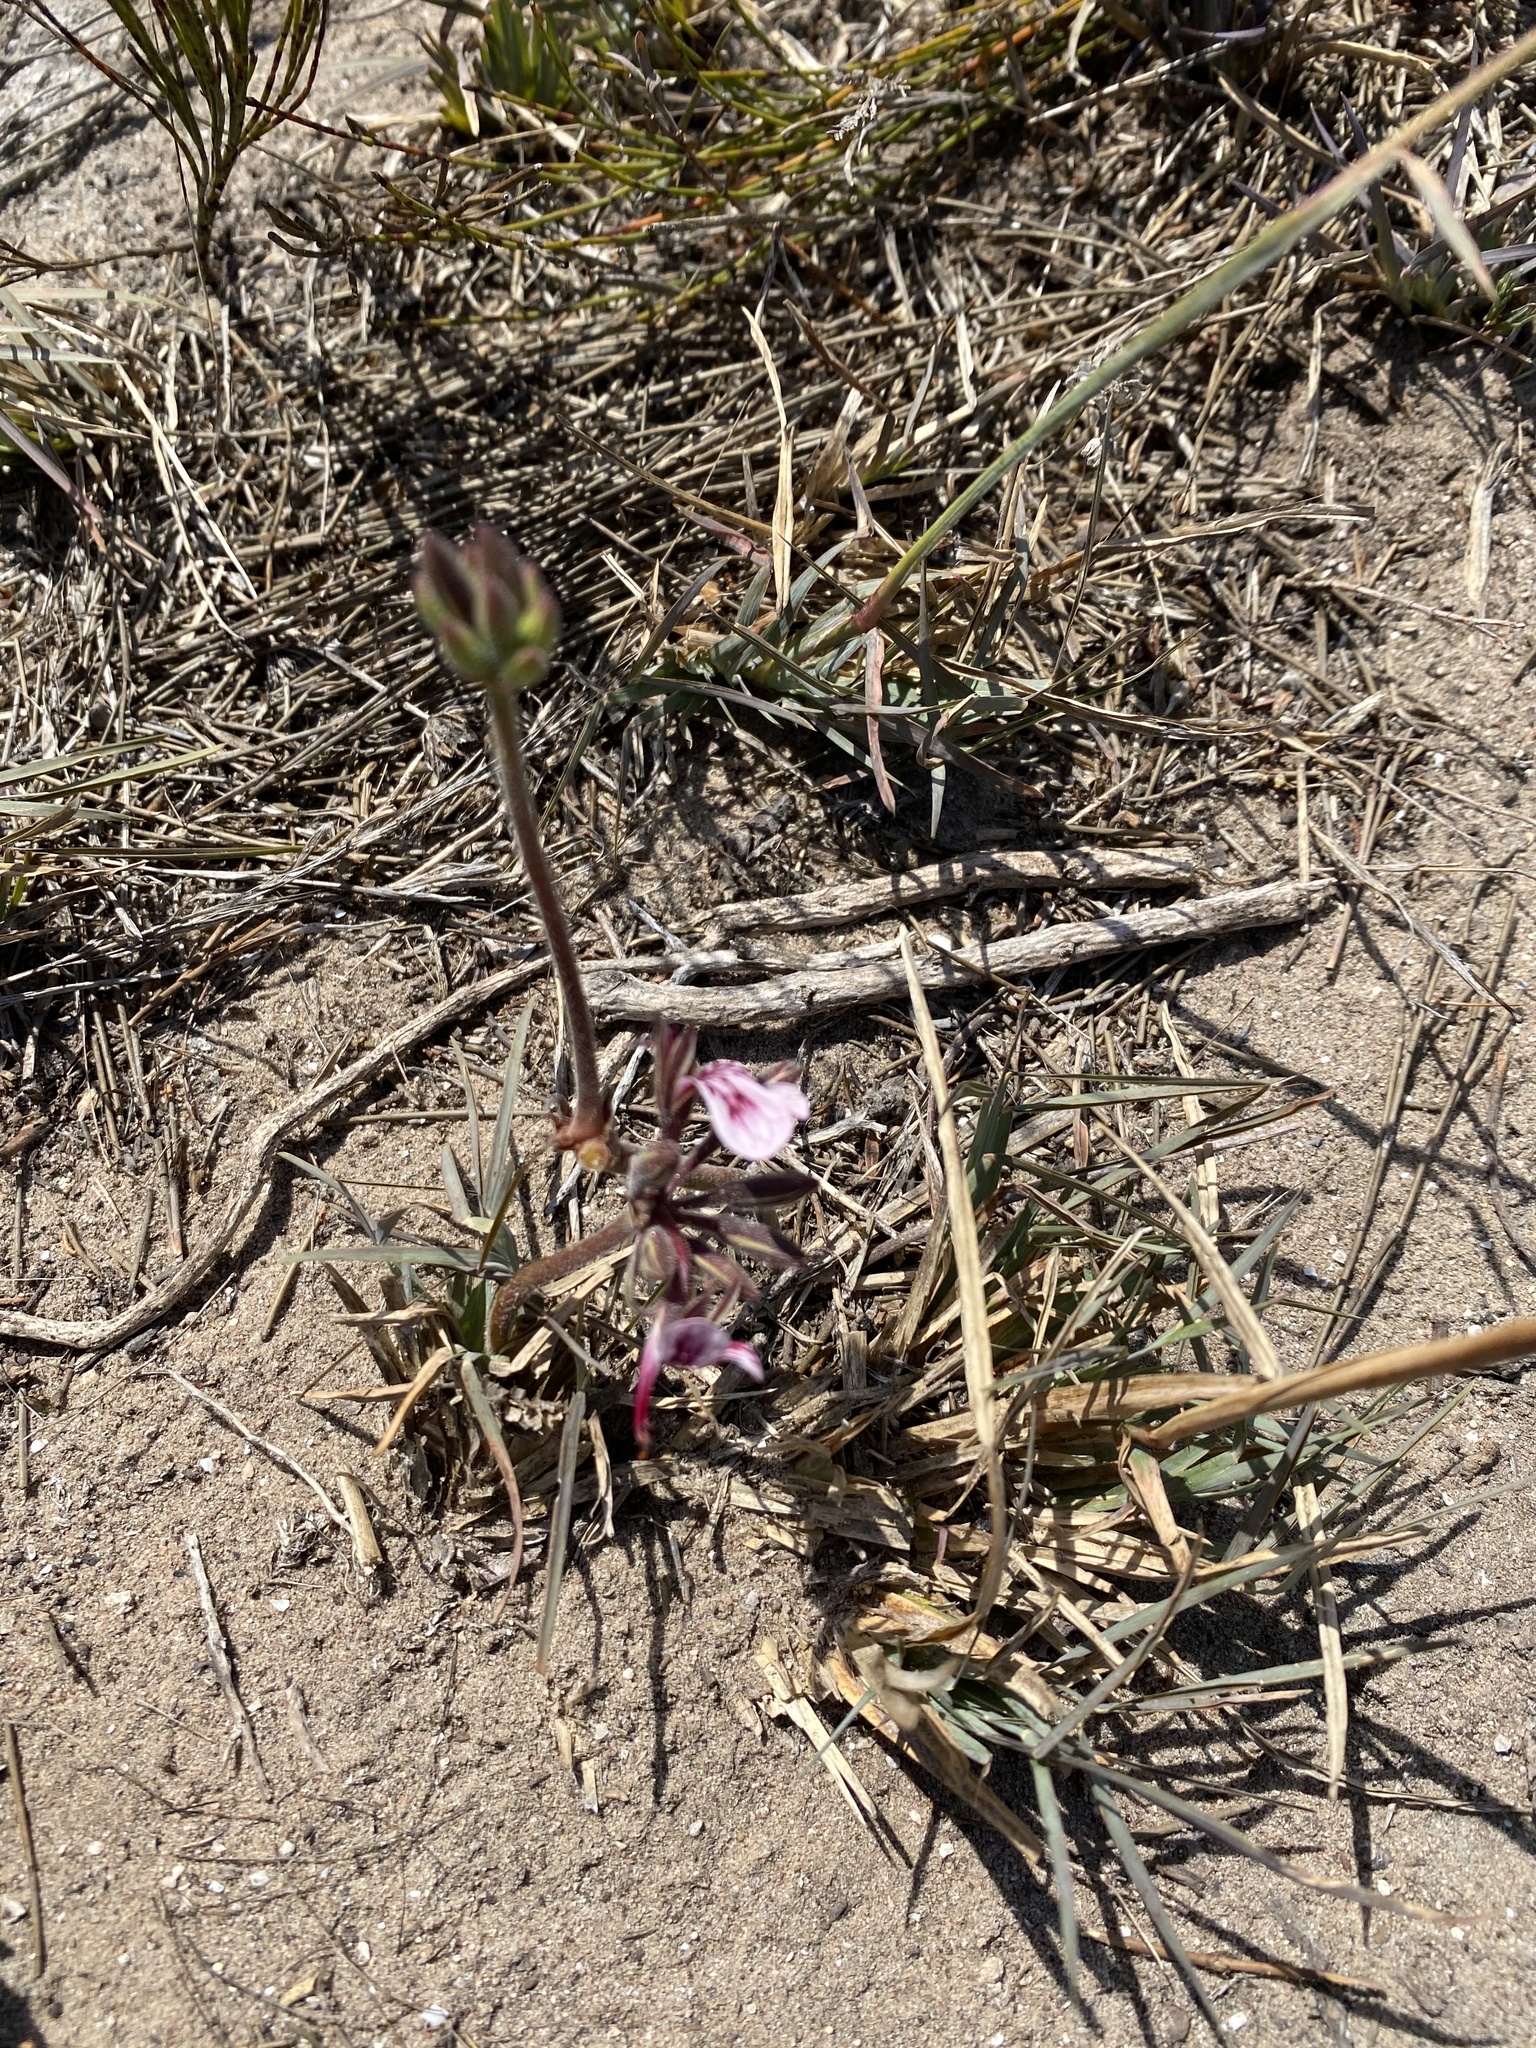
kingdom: Plantae
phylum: Tracheophyta
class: Magnoliopsida
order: Geraniales
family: Geraniaceae
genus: Pelargonium
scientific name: Pelargonium dipetalum
